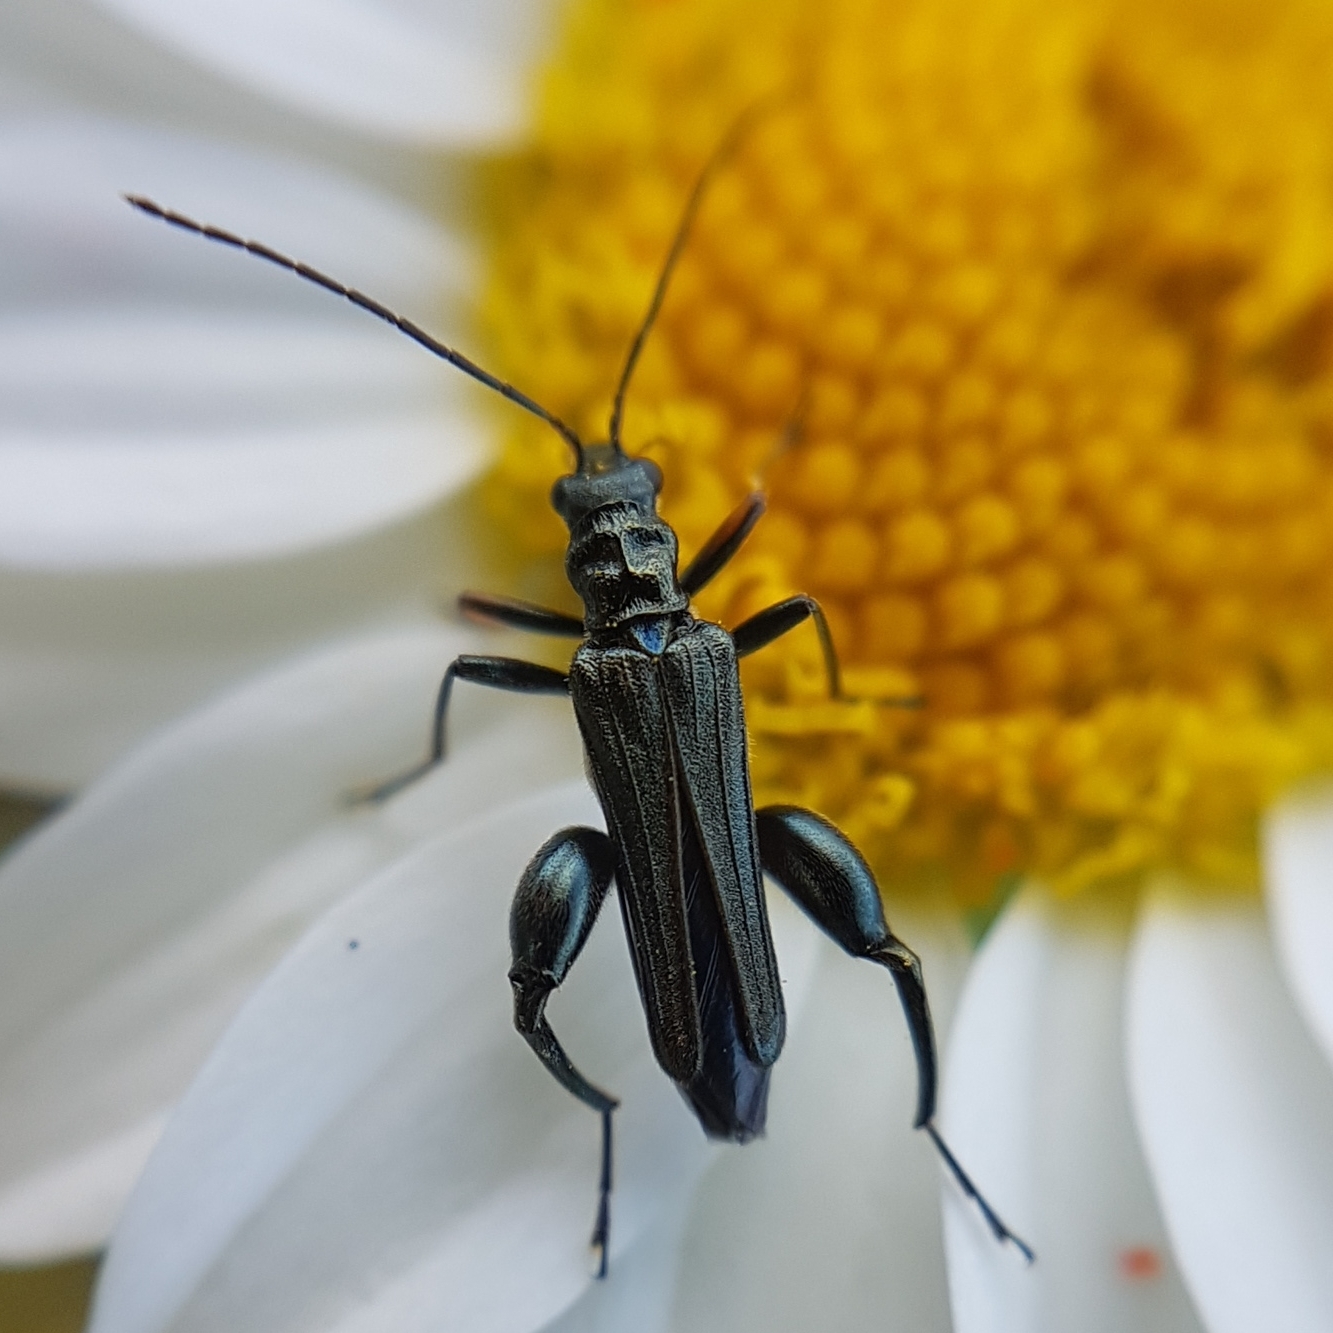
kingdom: Animalia
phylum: Arthropoda
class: Insecta
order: Coleoptera
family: Oedemeridae
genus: Oedemera
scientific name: Oedemera flavipes
